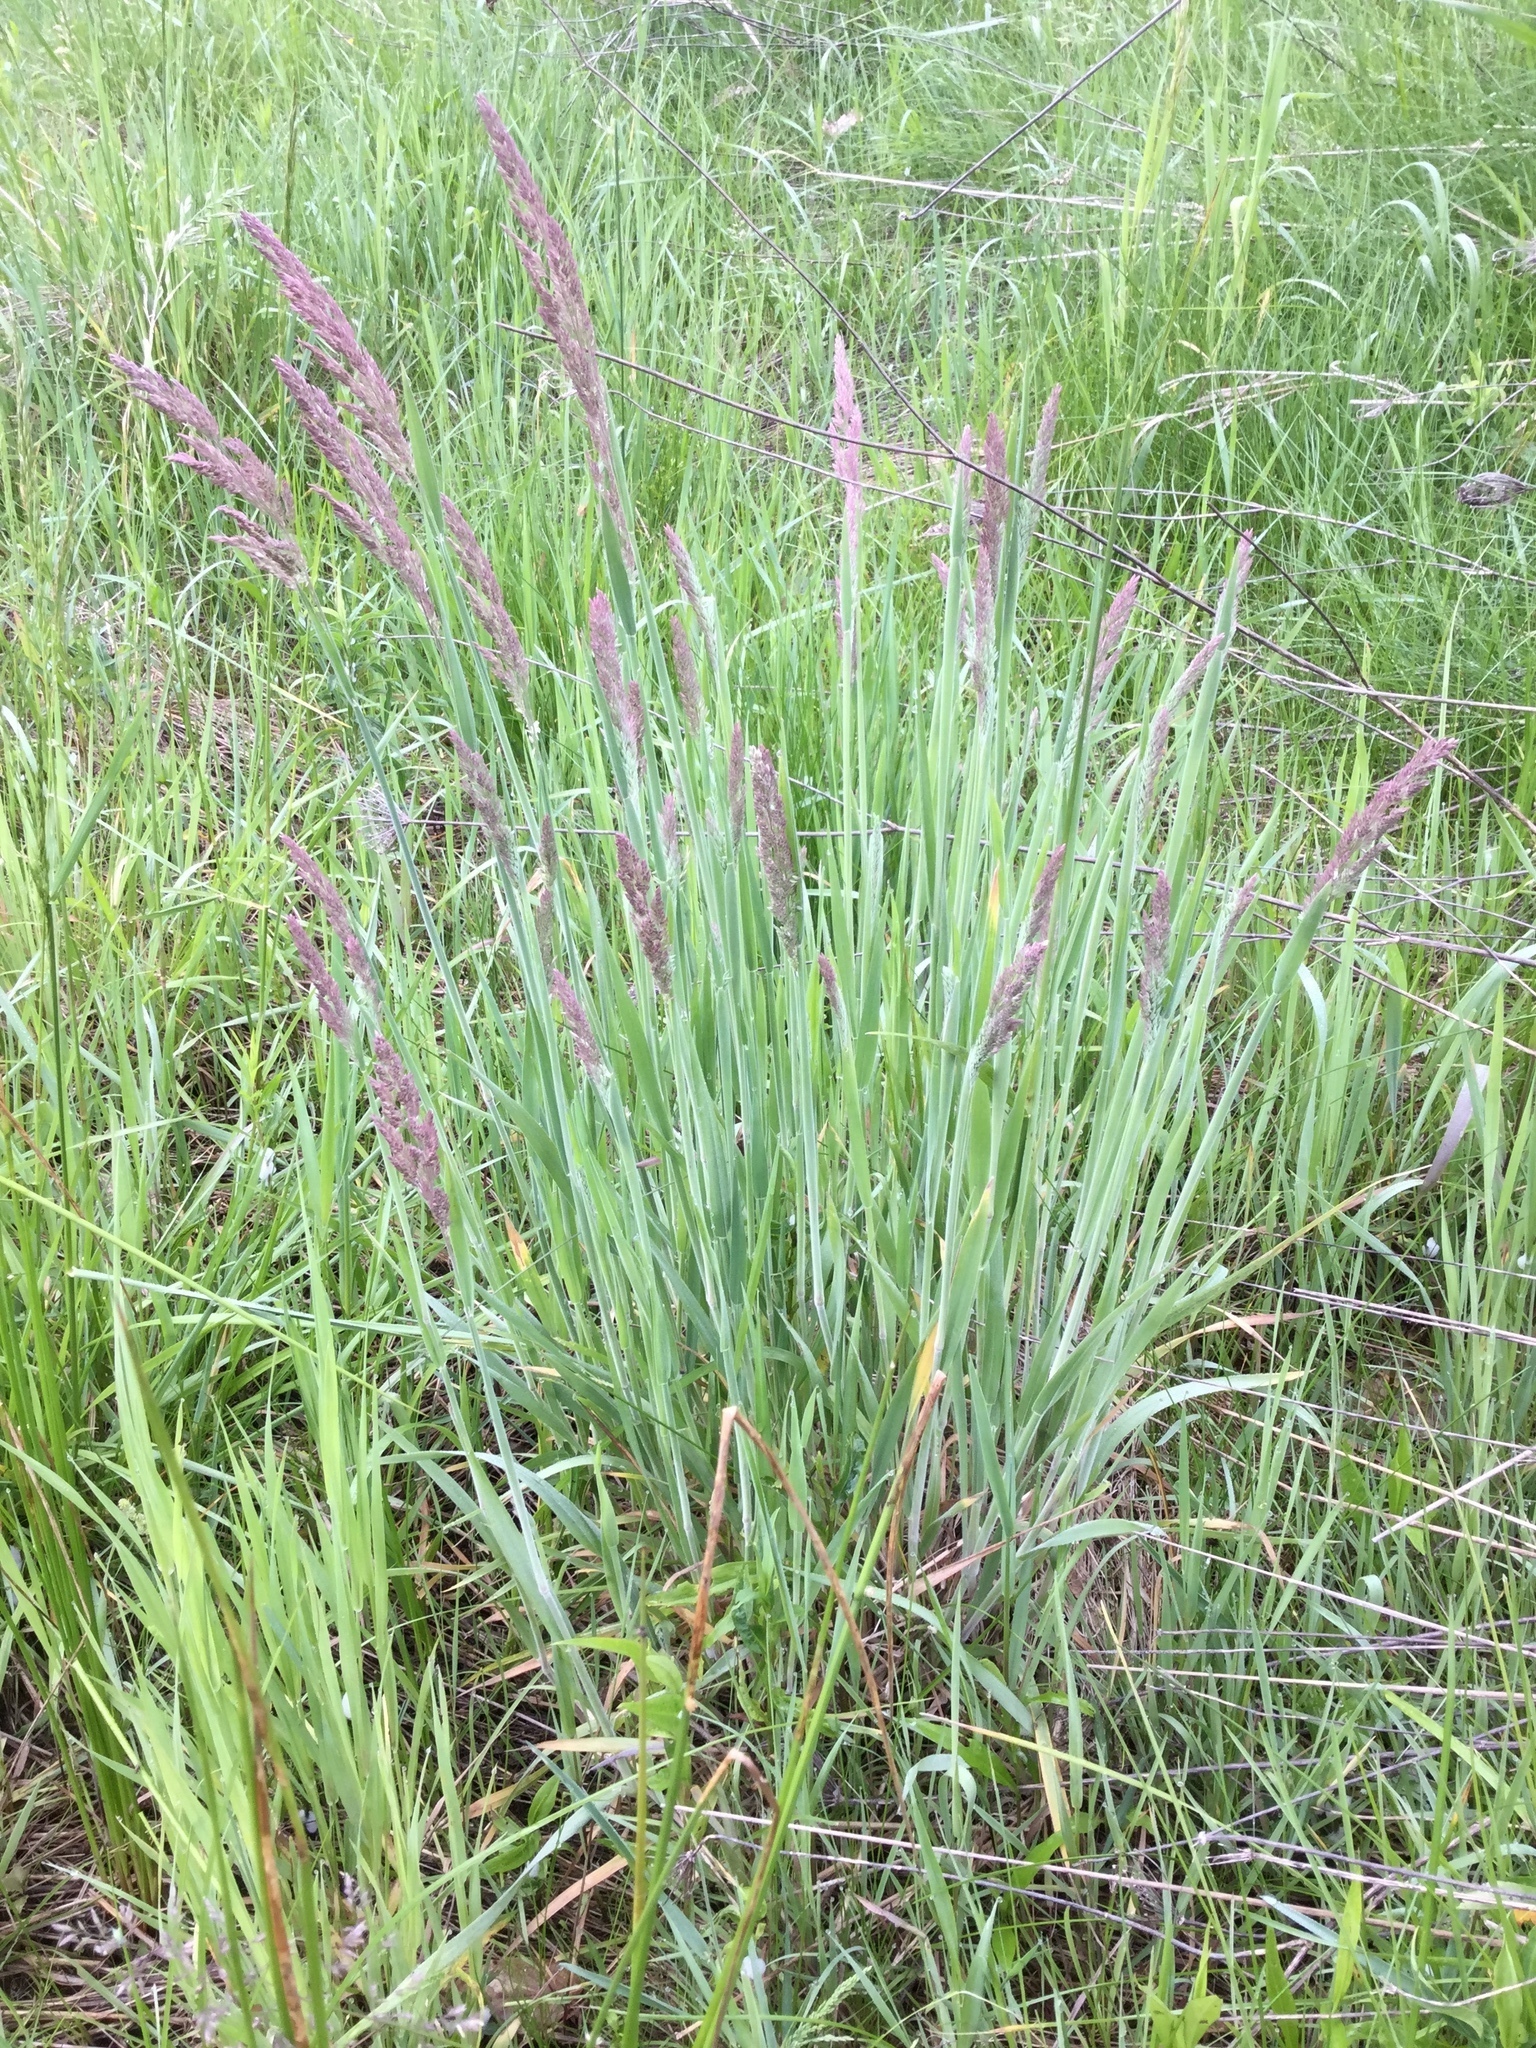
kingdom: Plantae
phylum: Tracheophyta
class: Liliopsida
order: Poales
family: Poaceae
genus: Holcus
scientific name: Holcus lanatus
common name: Yorkshire-fog
